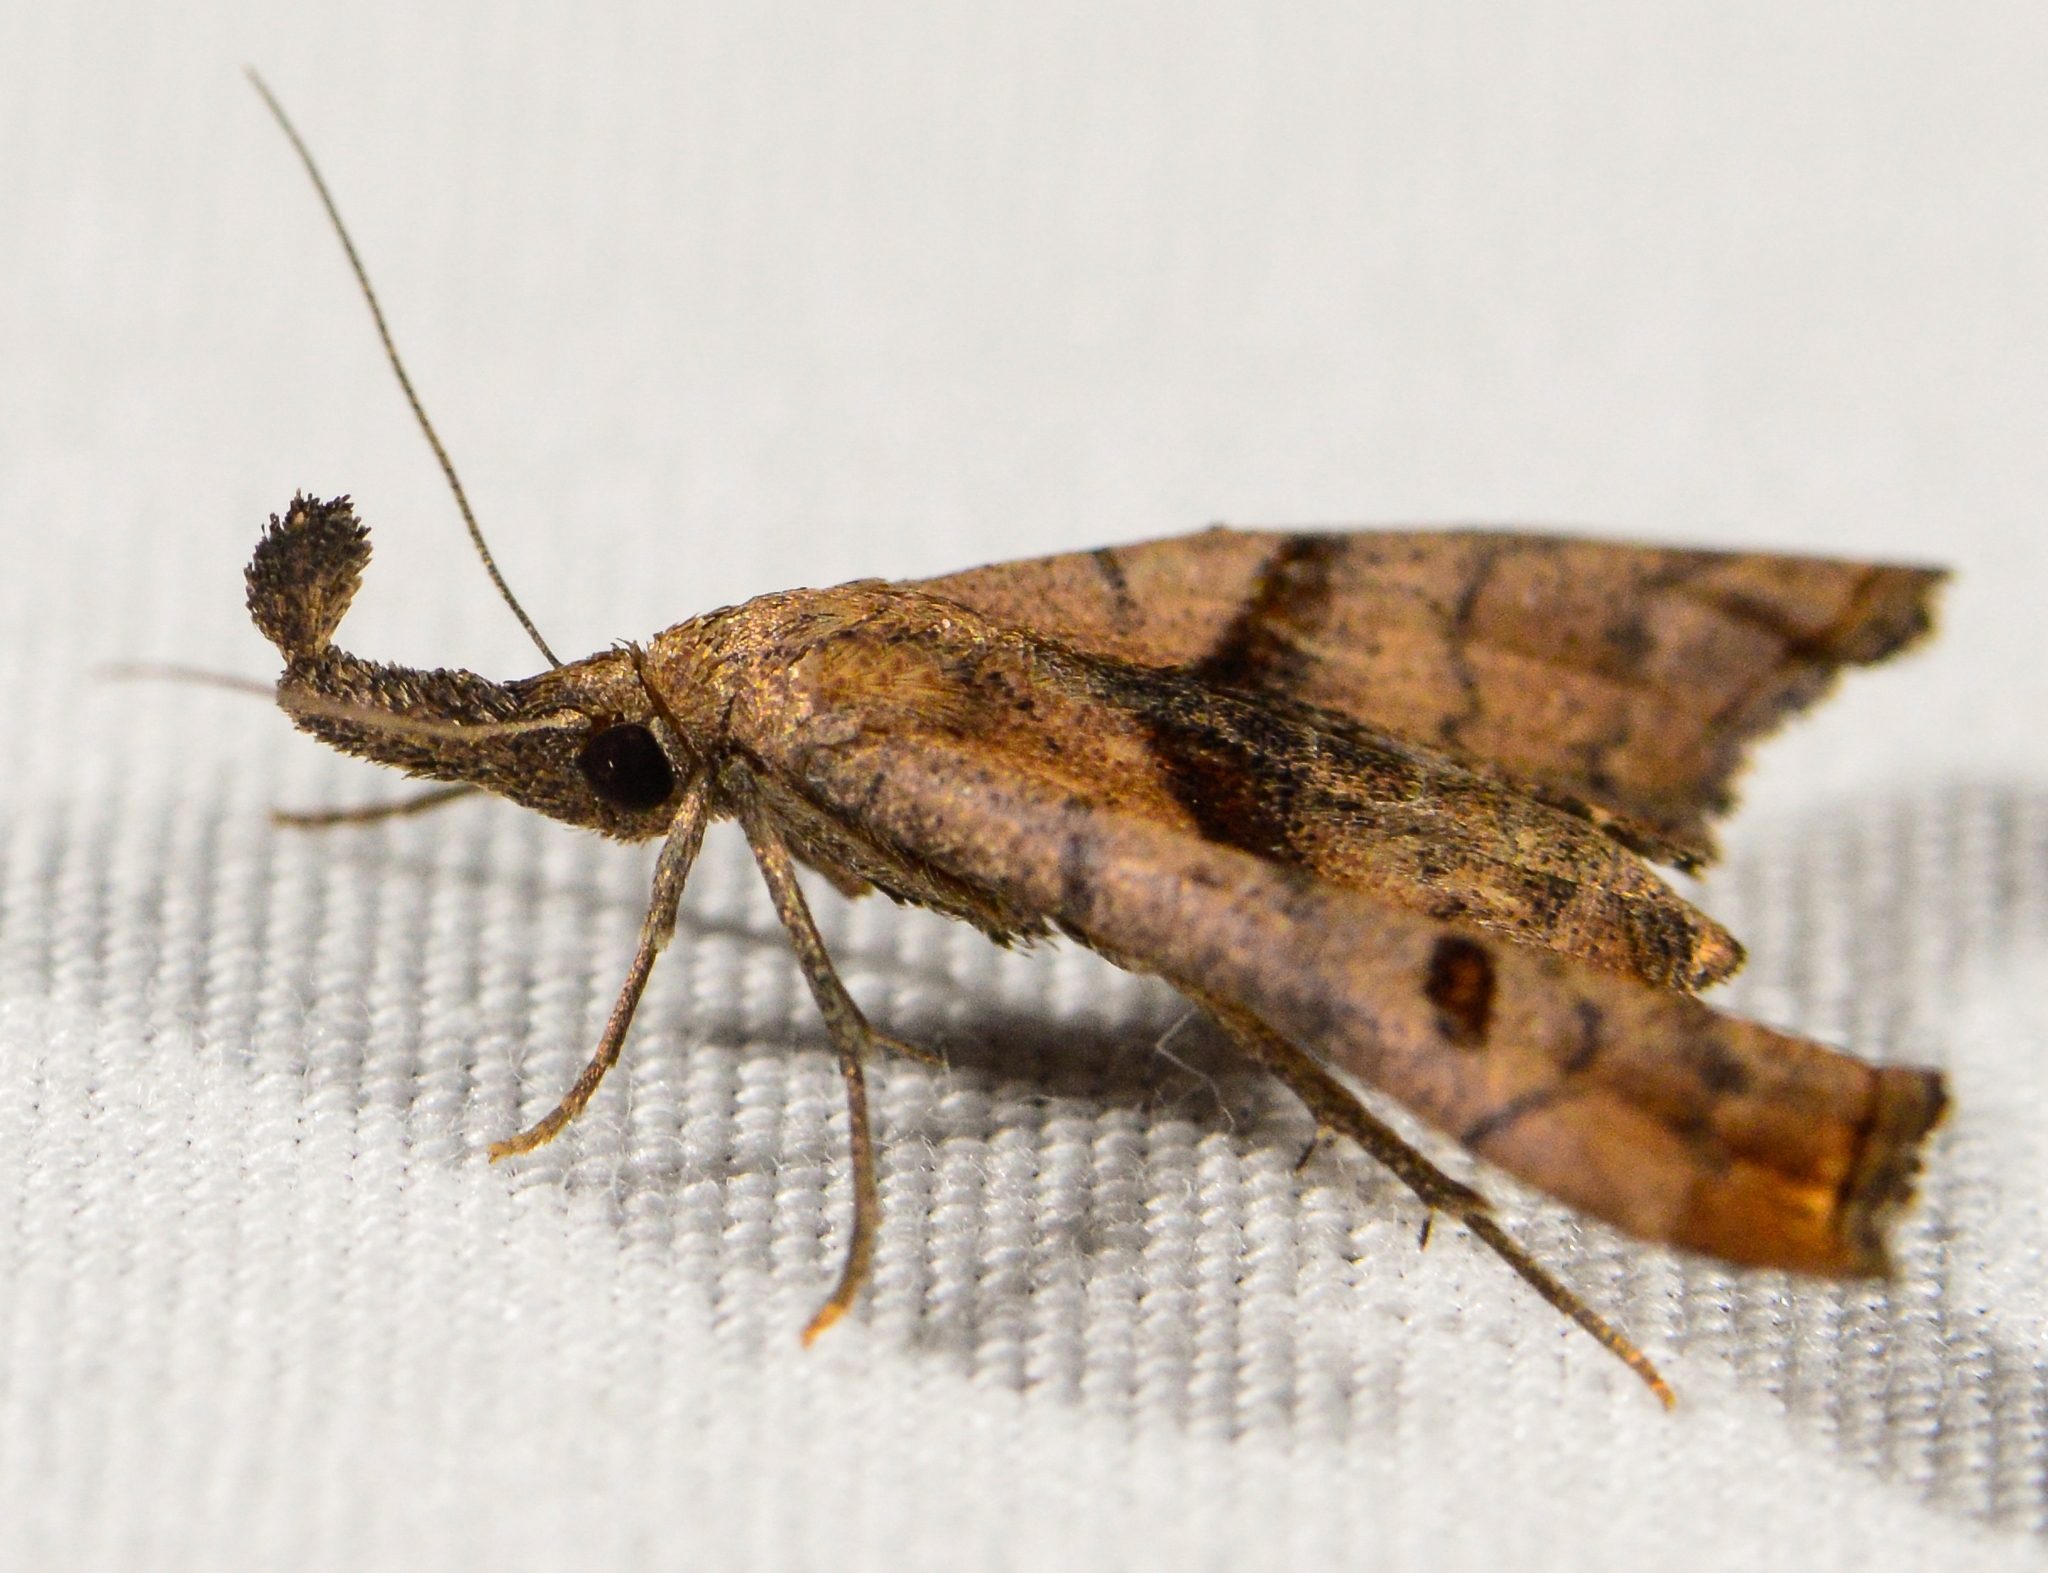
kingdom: Animalia
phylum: Arthropoda
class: Insecta
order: Lepidoptera
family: Erebidae
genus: Palthis
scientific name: Palthis angulalis
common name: Dark-spotted palthis moth
